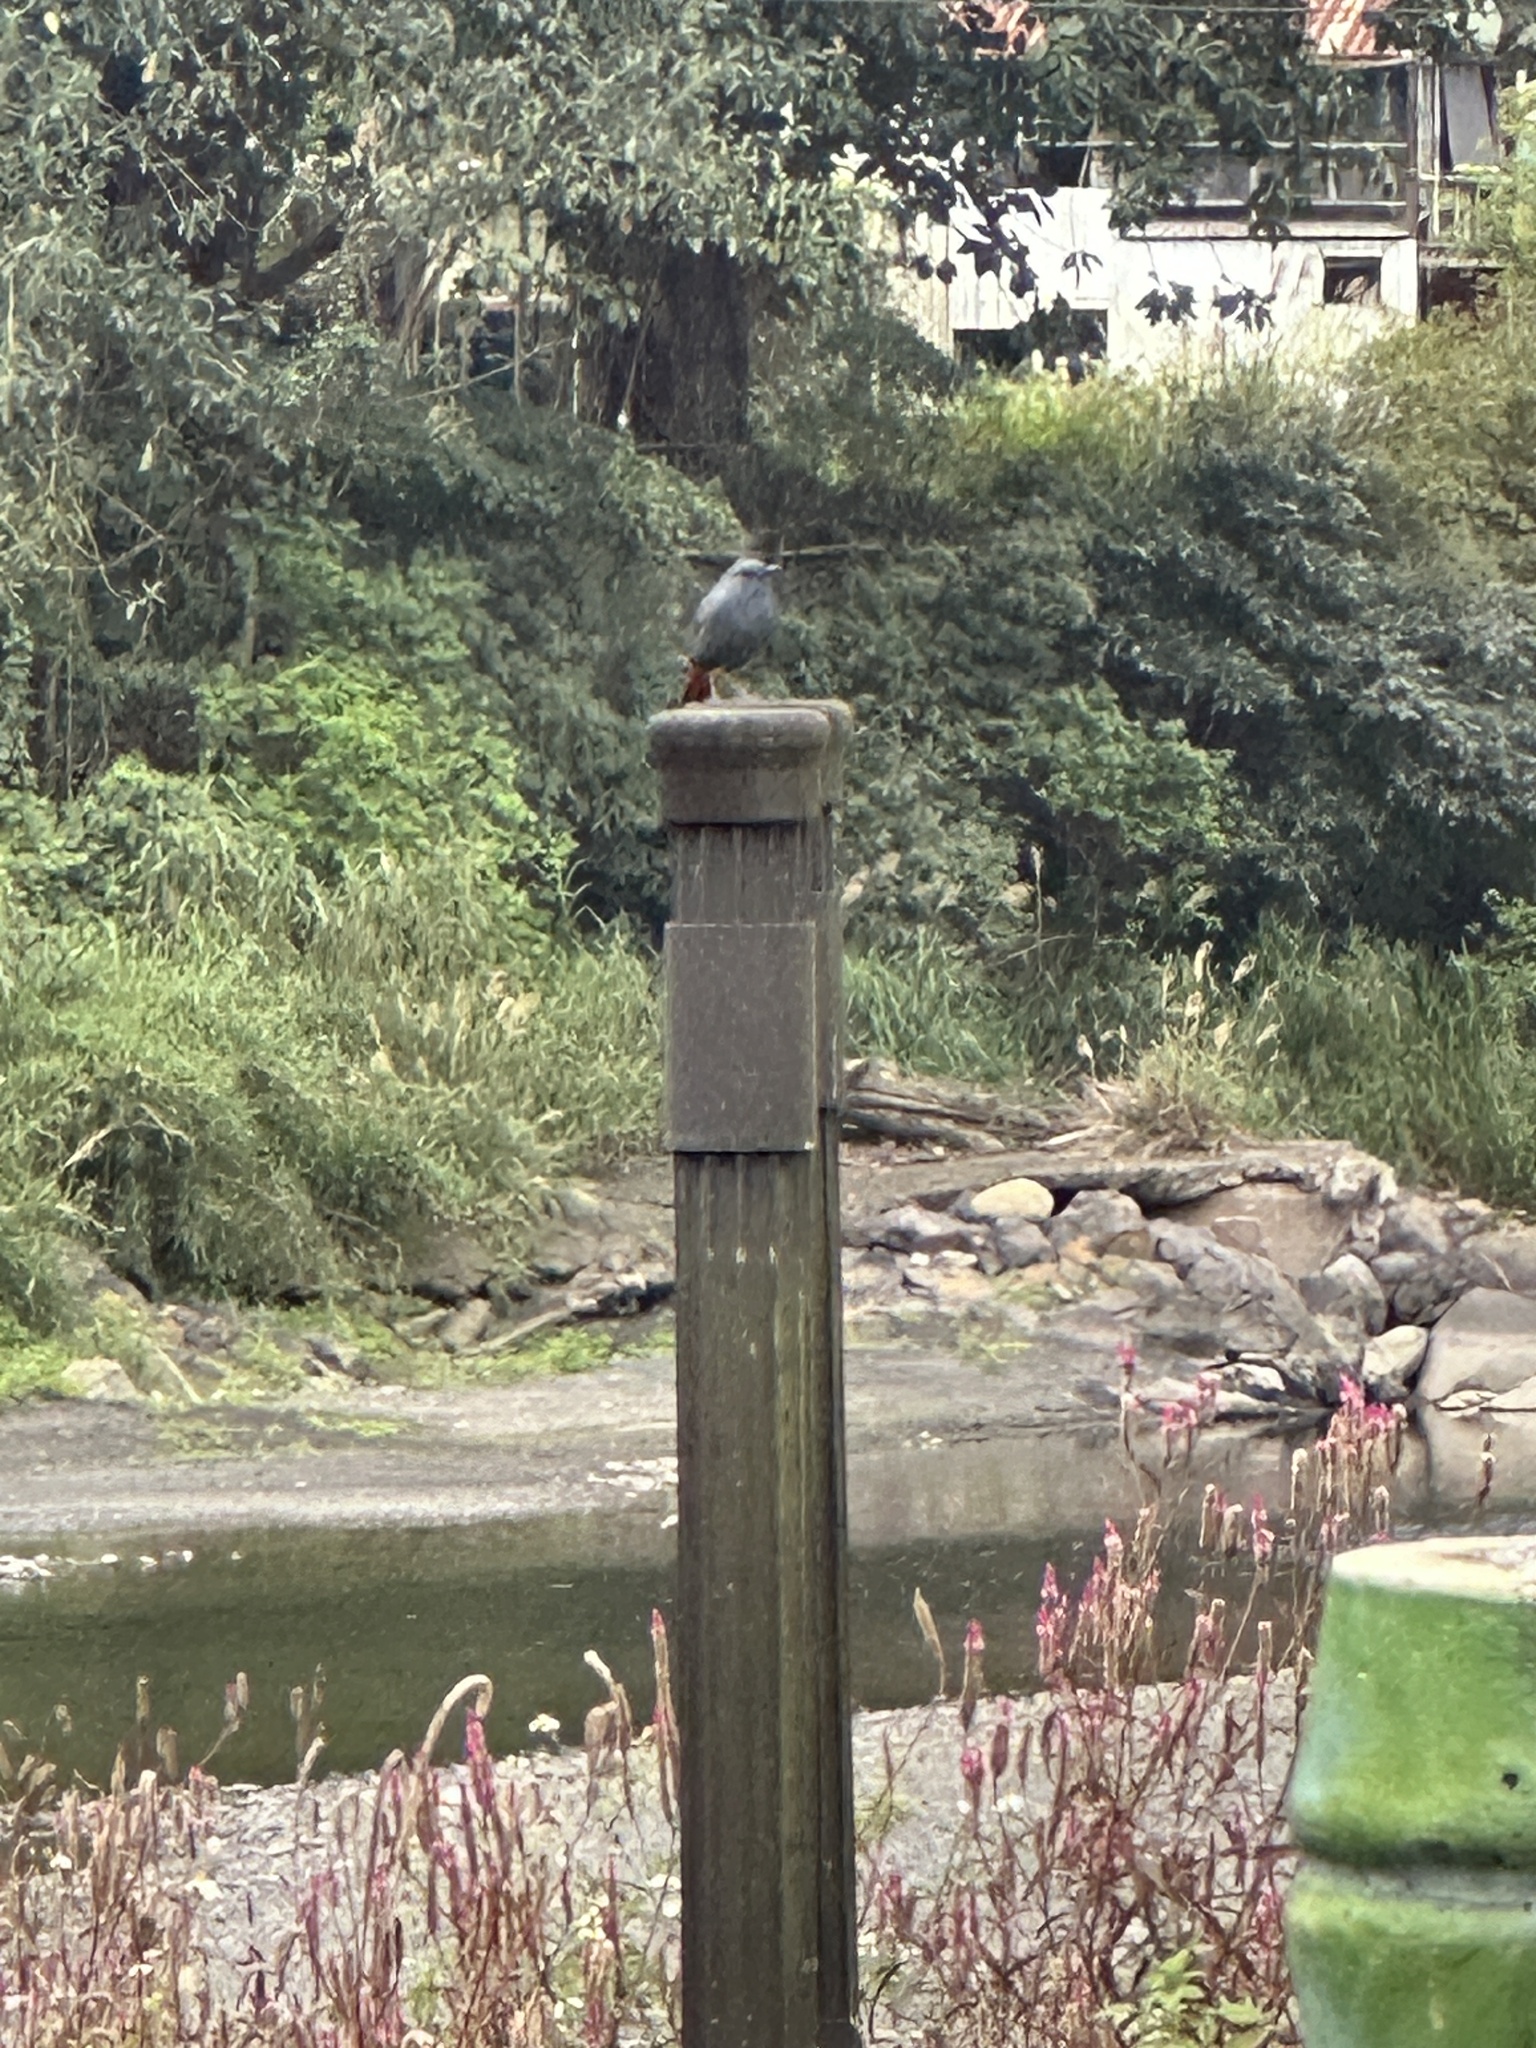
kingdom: Animalia
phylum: Chordata
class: Aves
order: Passeriformes
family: Muscicapidae
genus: Rhyacornis
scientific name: Rhyacornis fuliginosa
